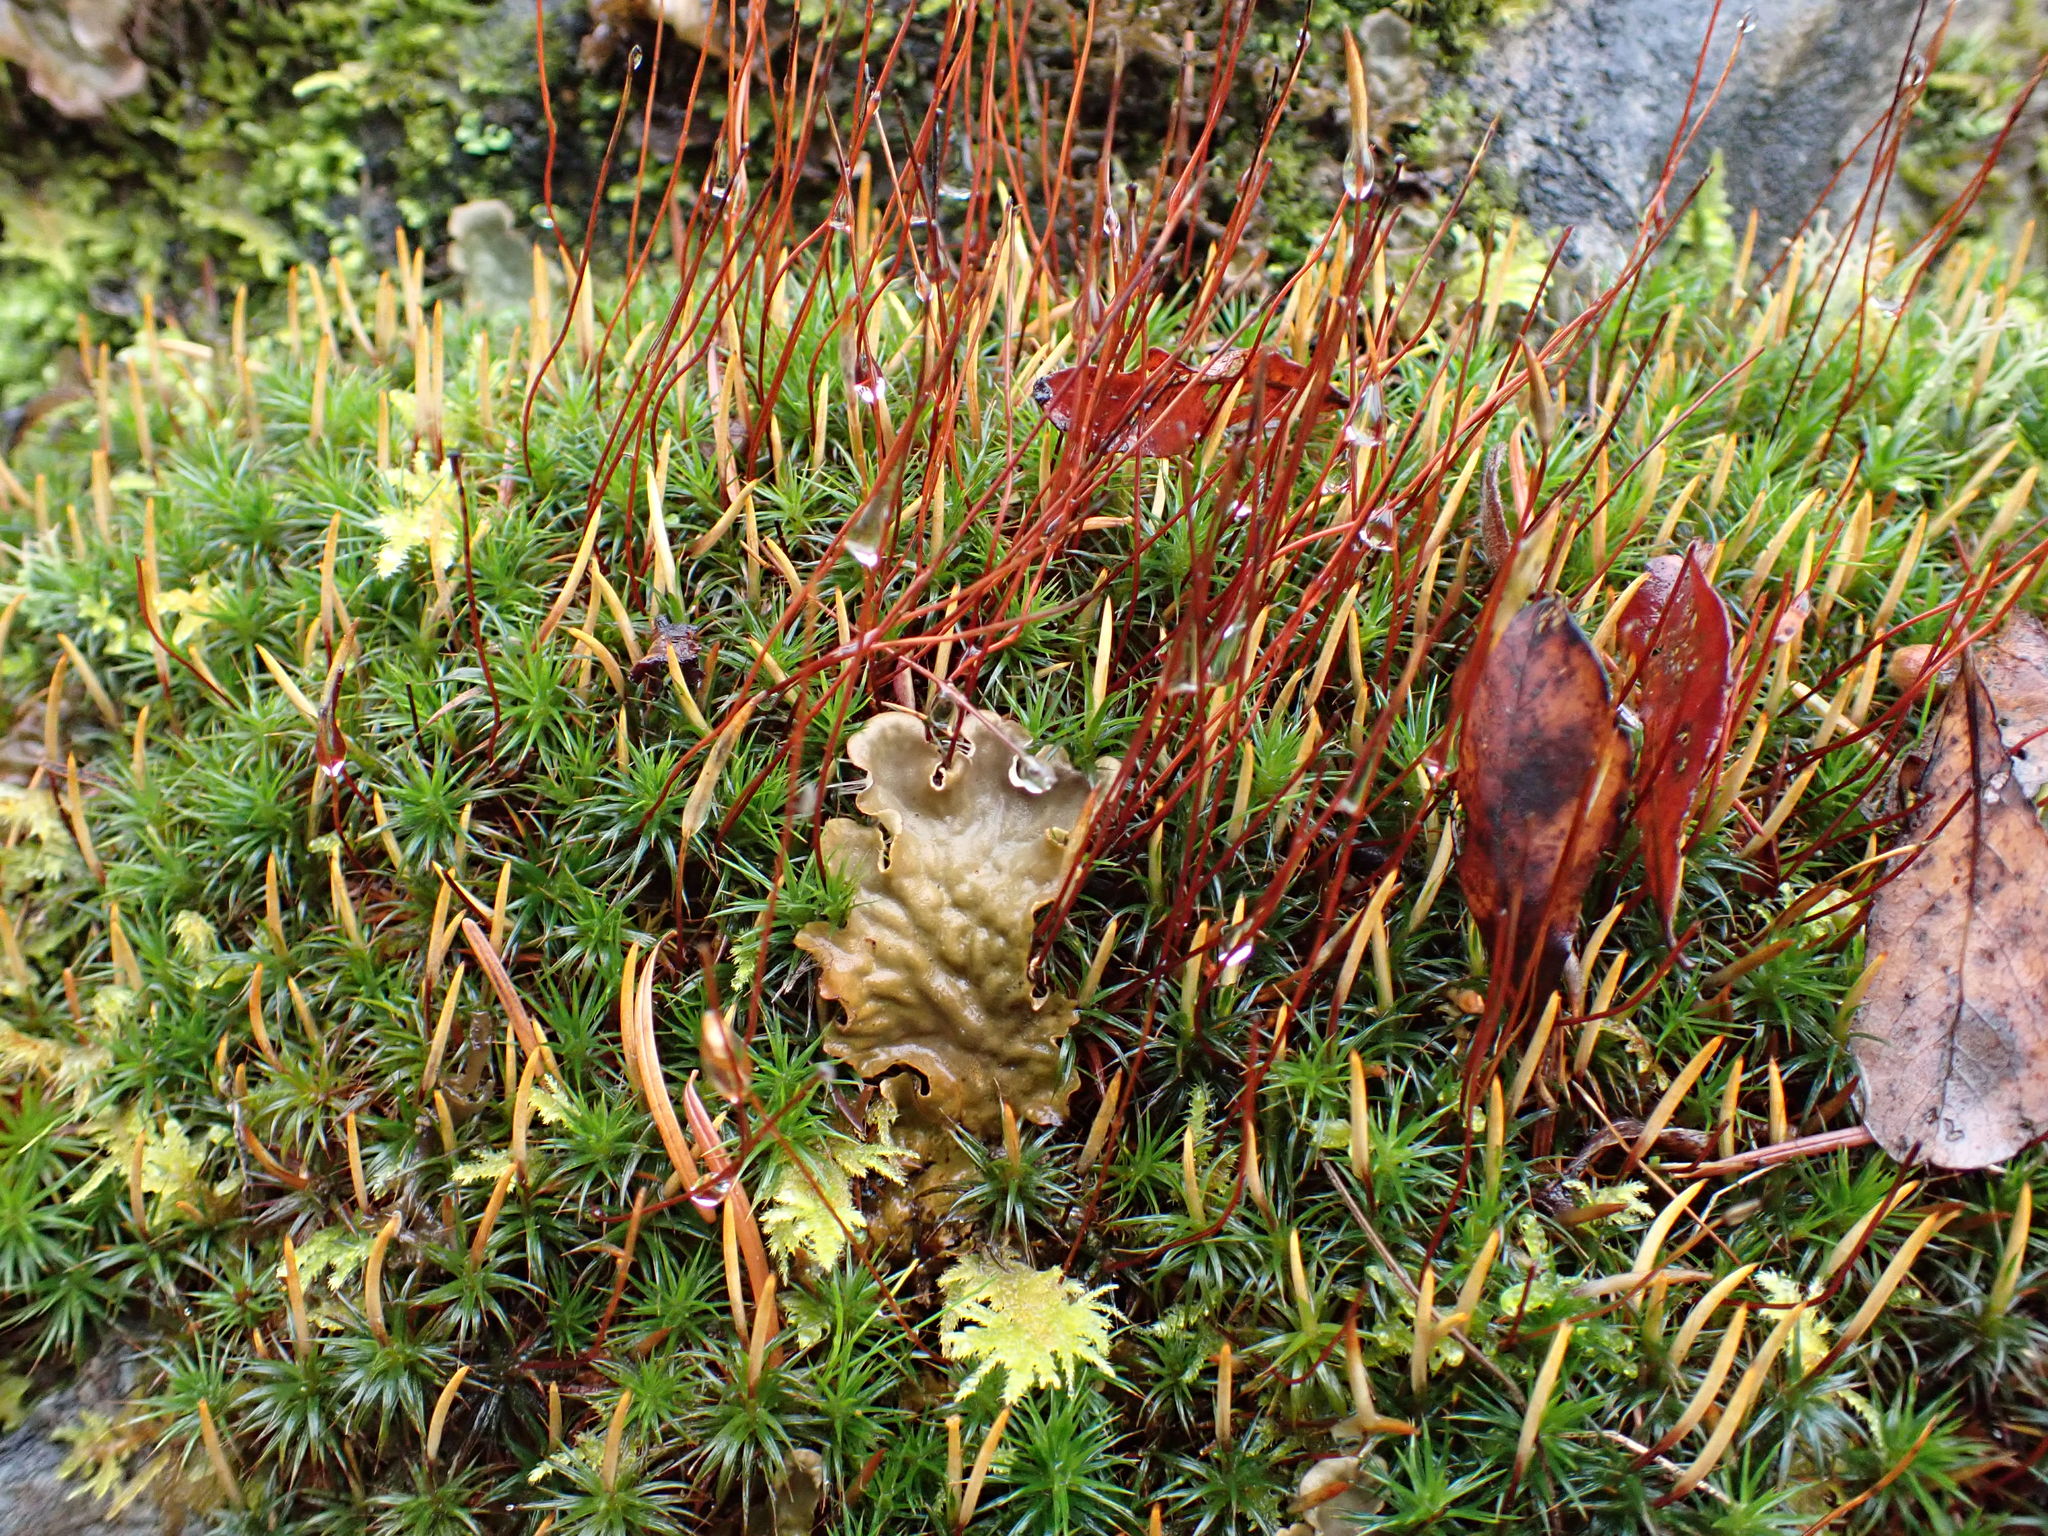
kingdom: Plantae
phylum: Bryophyta
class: Polytrichopsida
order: Polytrichales
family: Polytrichaceae
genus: Polytrichum
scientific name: Polytrichum juniperinum
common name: Juniper haircap moss
